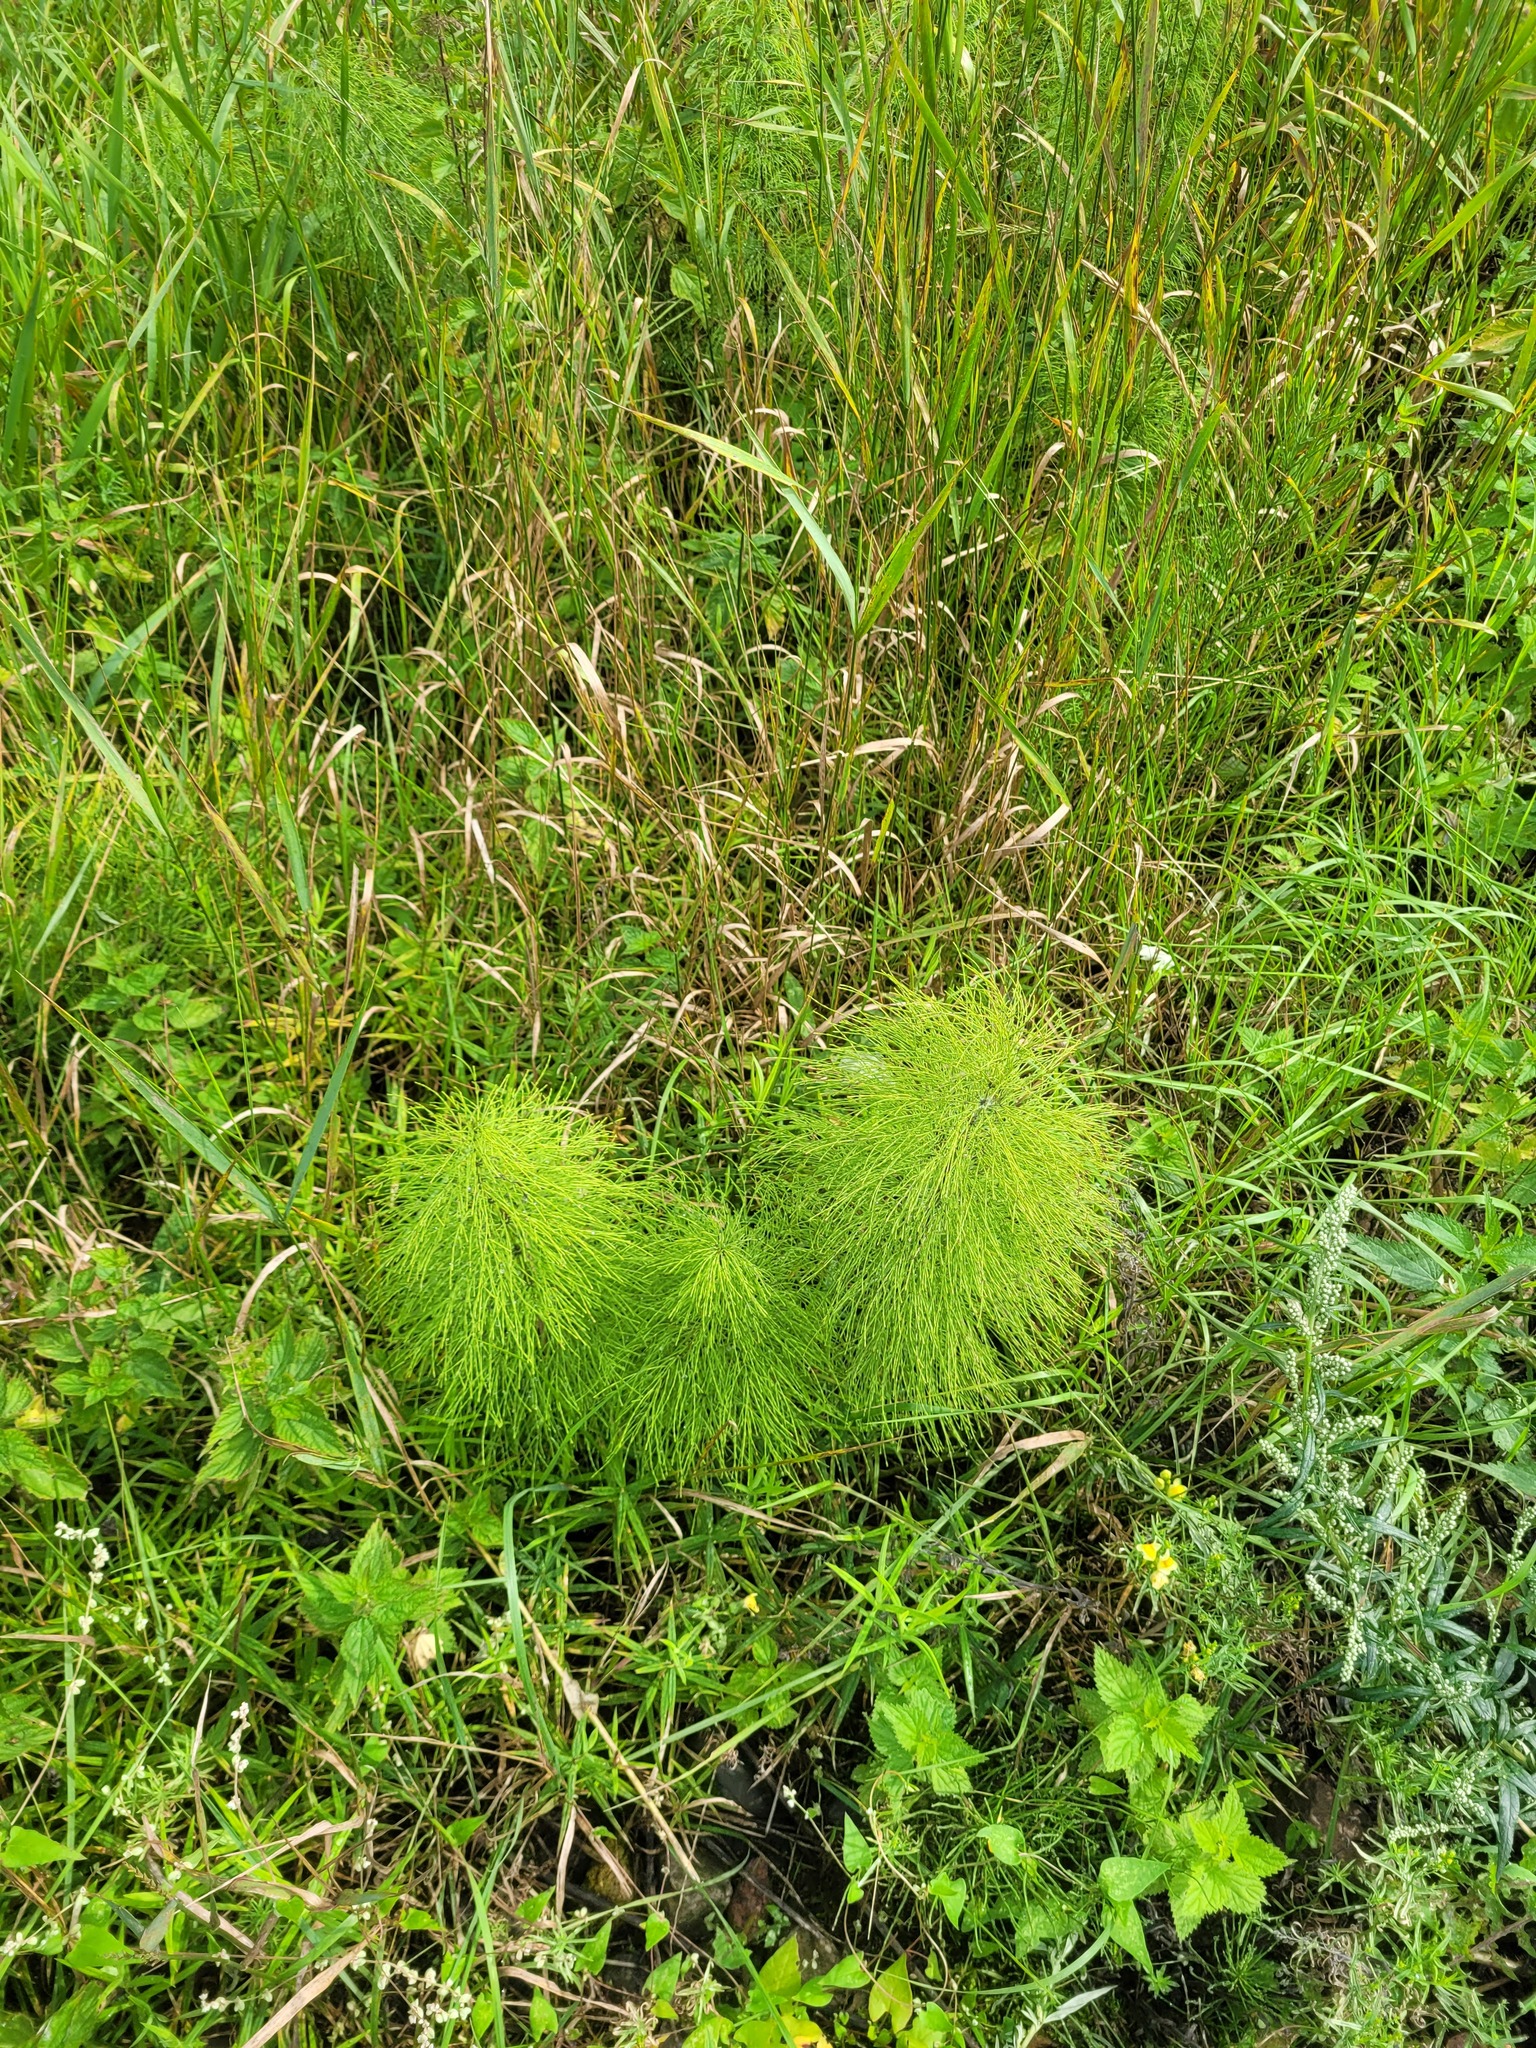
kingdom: Plantae
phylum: Tracheophyta
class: Polypodiopsida
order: Equisetales
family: Equisetaceae
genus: Equisetum
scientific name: Equisetum sylvaticum
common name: Wood horsetail
